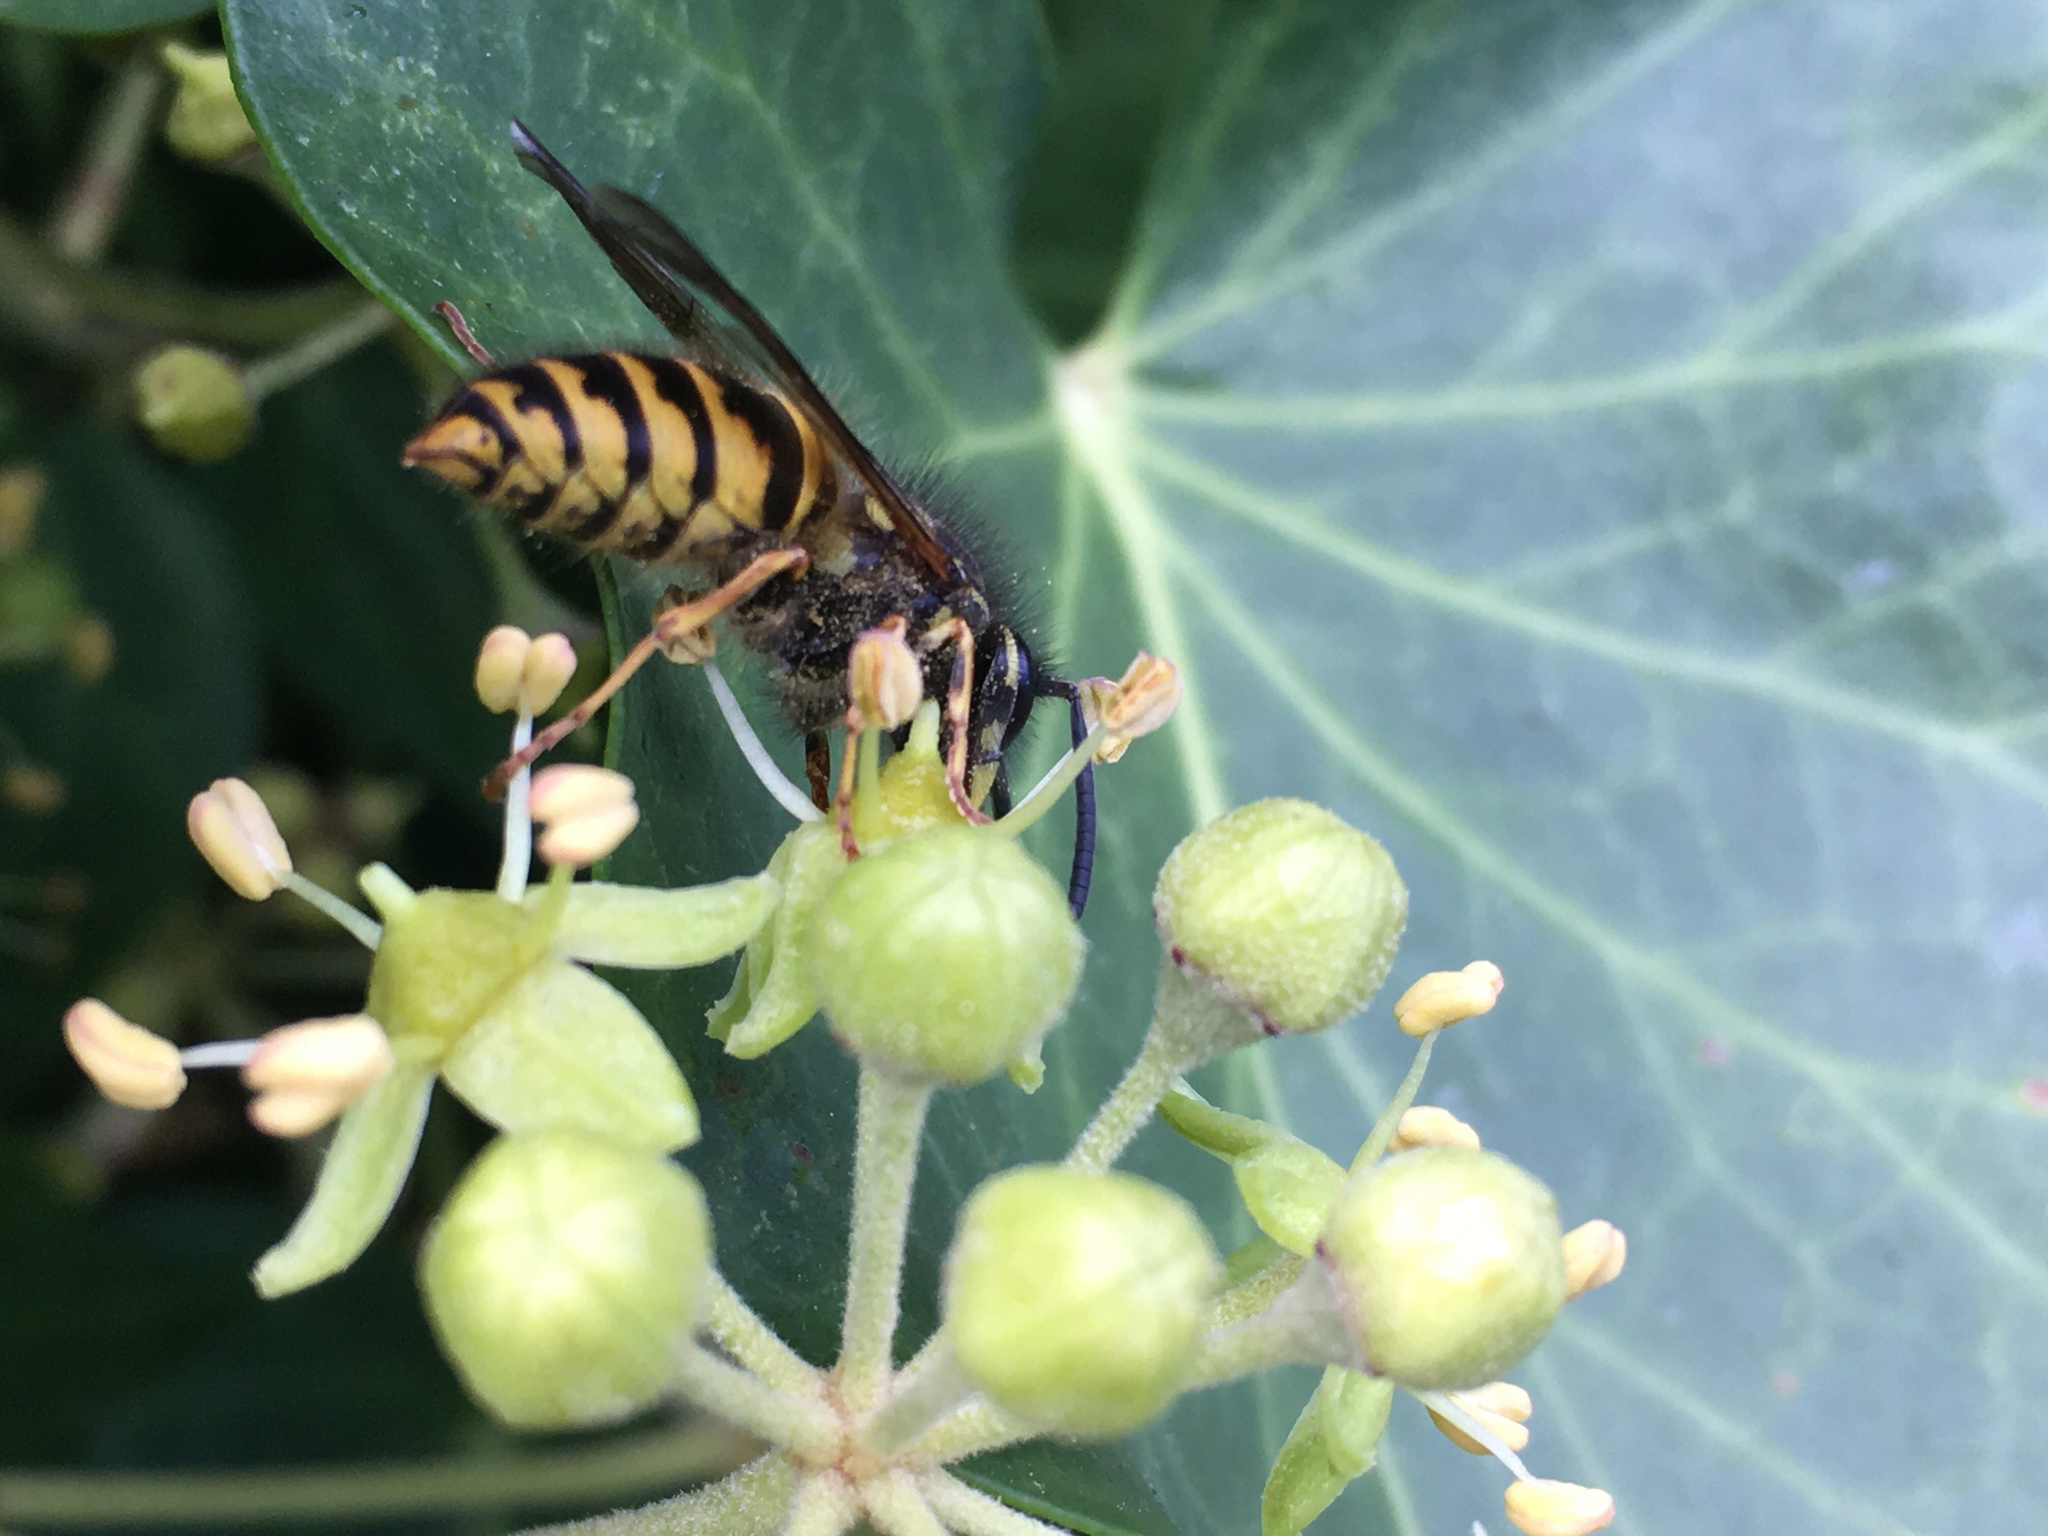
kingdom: Animalia
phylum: Arthropoda
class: Insecta
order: Hymenoptera
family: Vespidae
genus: Vespula
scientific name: Vespula vulgaris
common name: Common wasp
